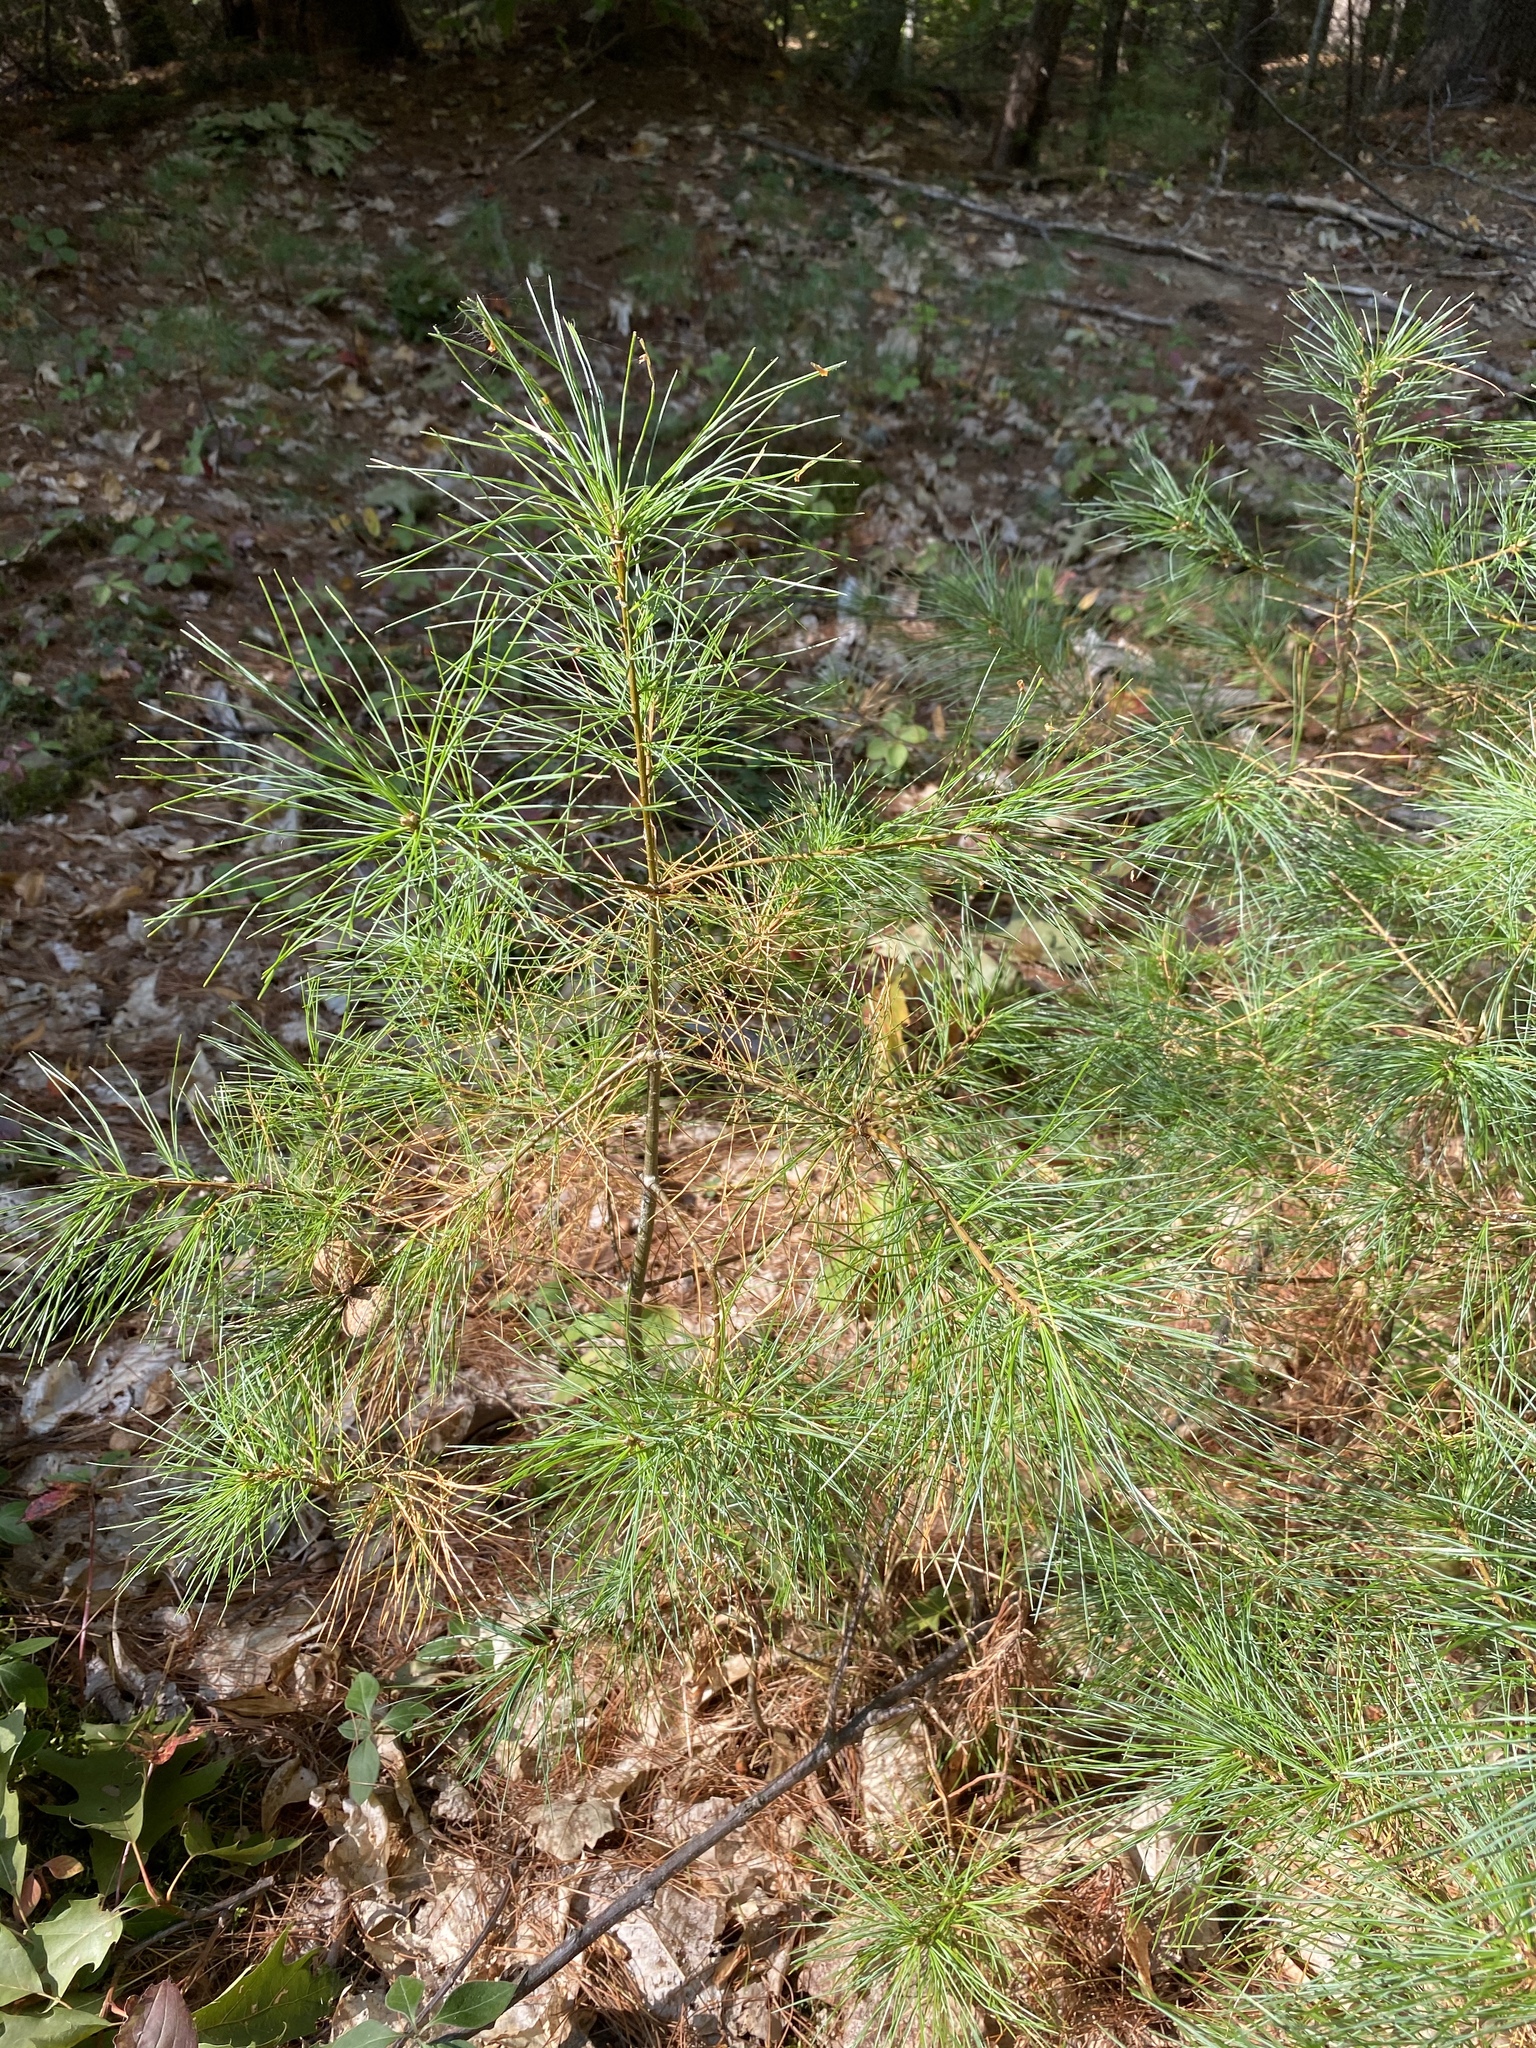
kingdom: Plantae
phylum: Tracheophyta
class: Pinopsida
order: Pinales
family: Pinaceae
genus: Pinus
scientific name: Pinus strobus
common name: Weymouth pine
